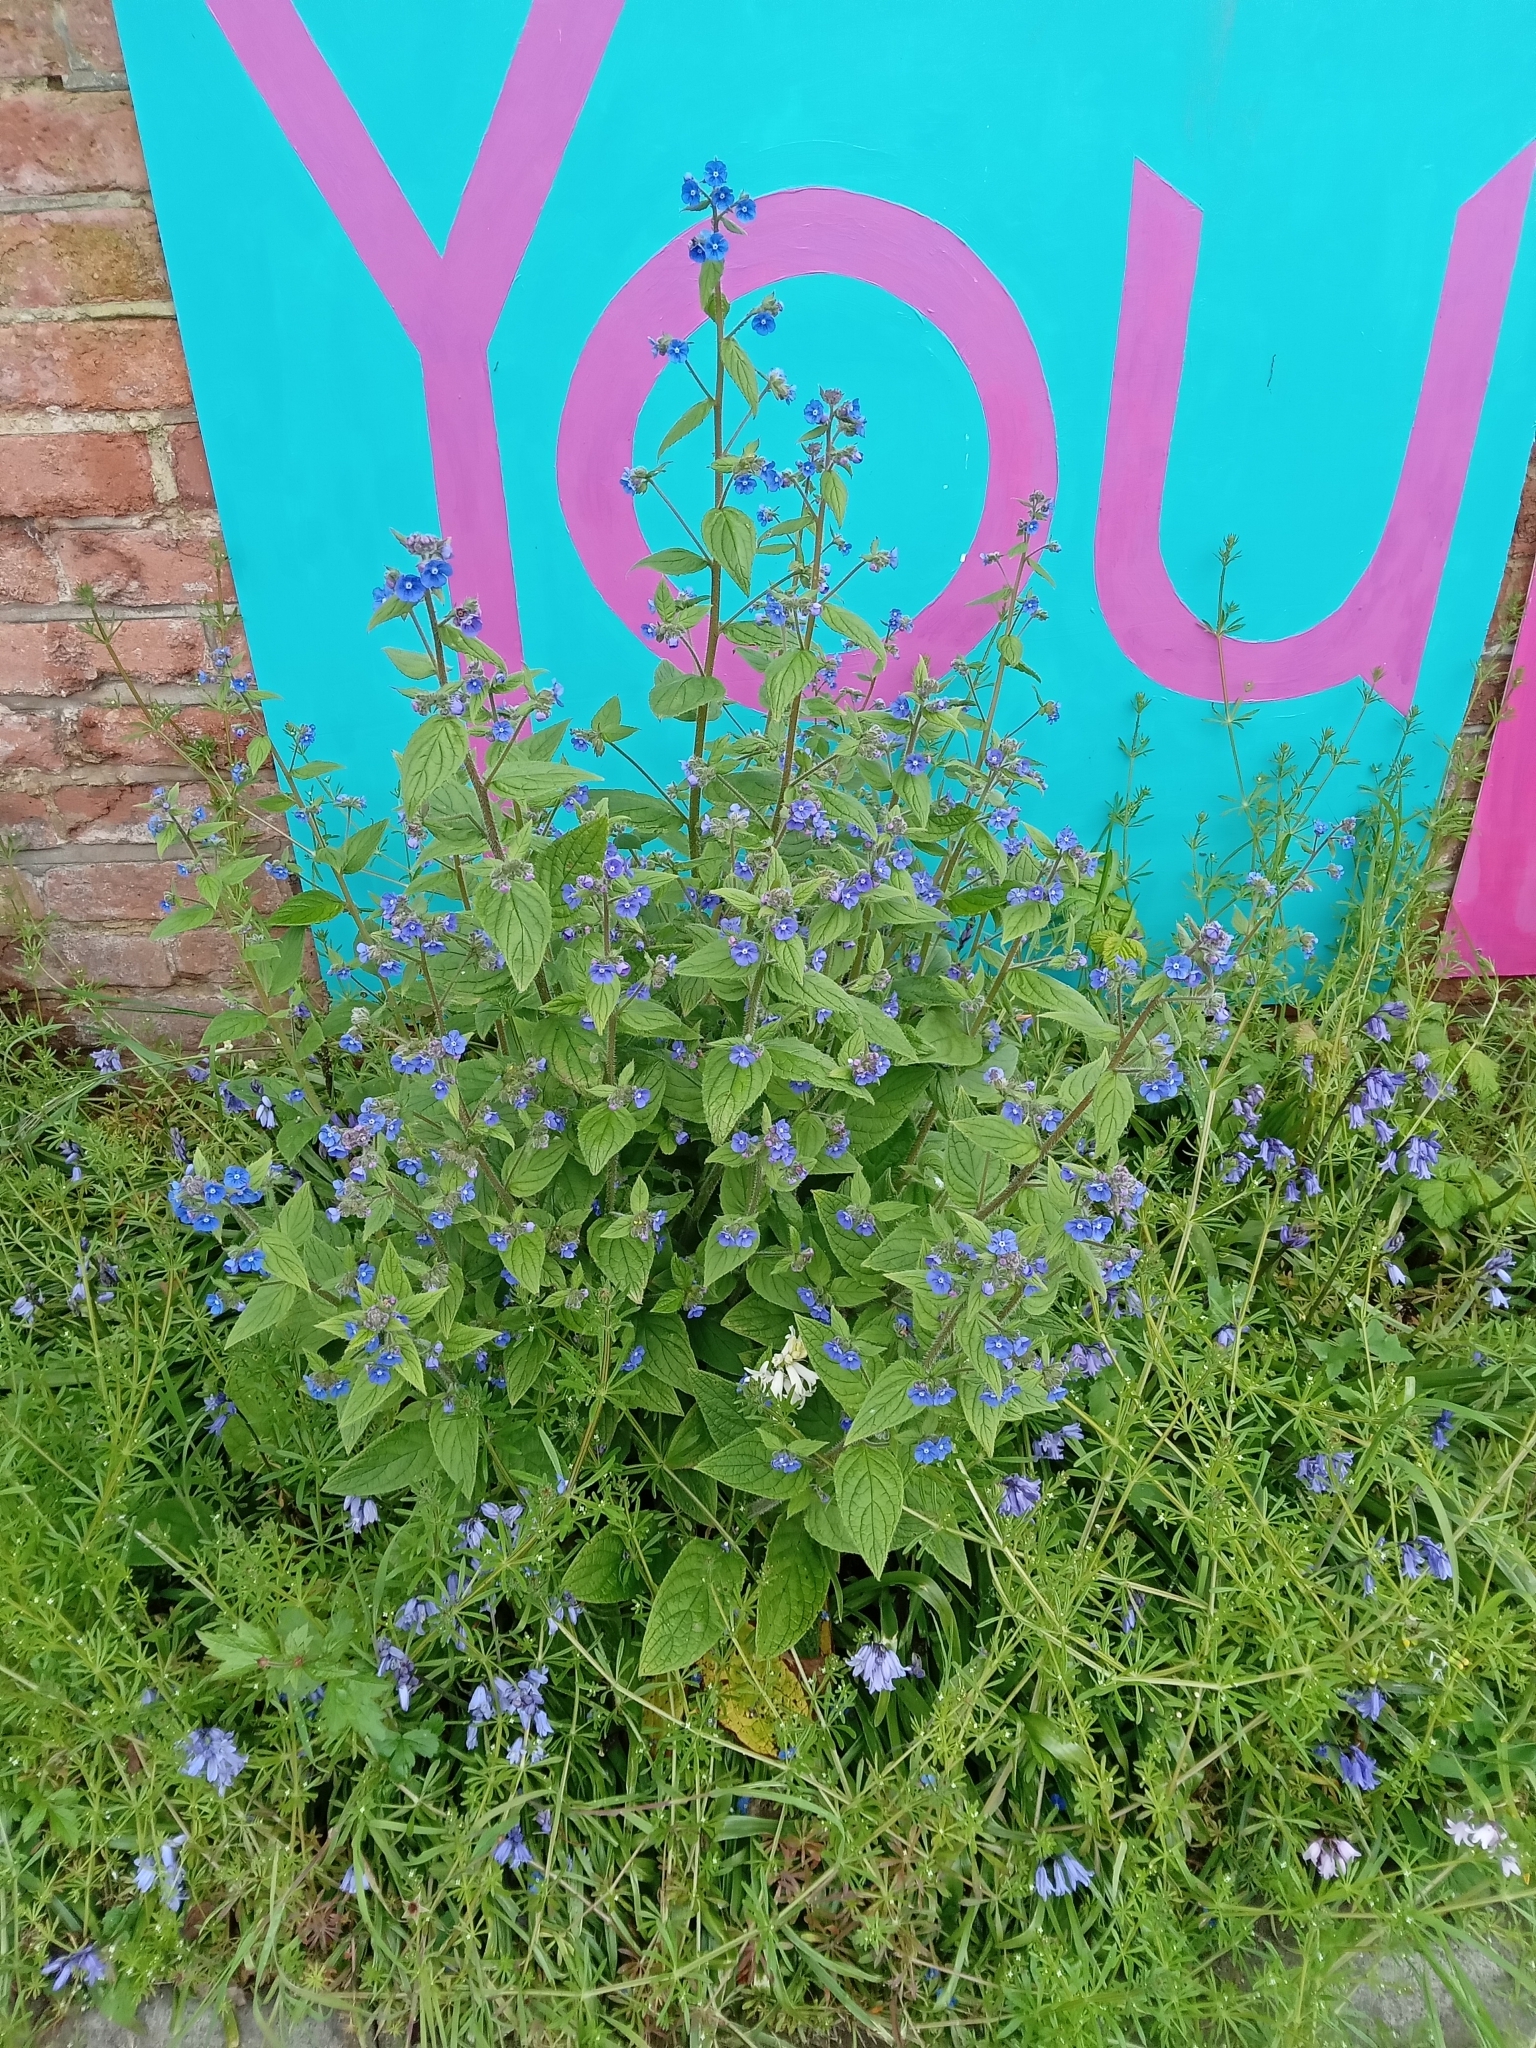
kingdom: Plantae
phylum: Tracheophyta
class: Magnoliopsida
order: Boraginales
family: Boraginaceae
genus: Pentaglottis
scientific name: Pentaglottis sempervirens
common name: Green alkanet
